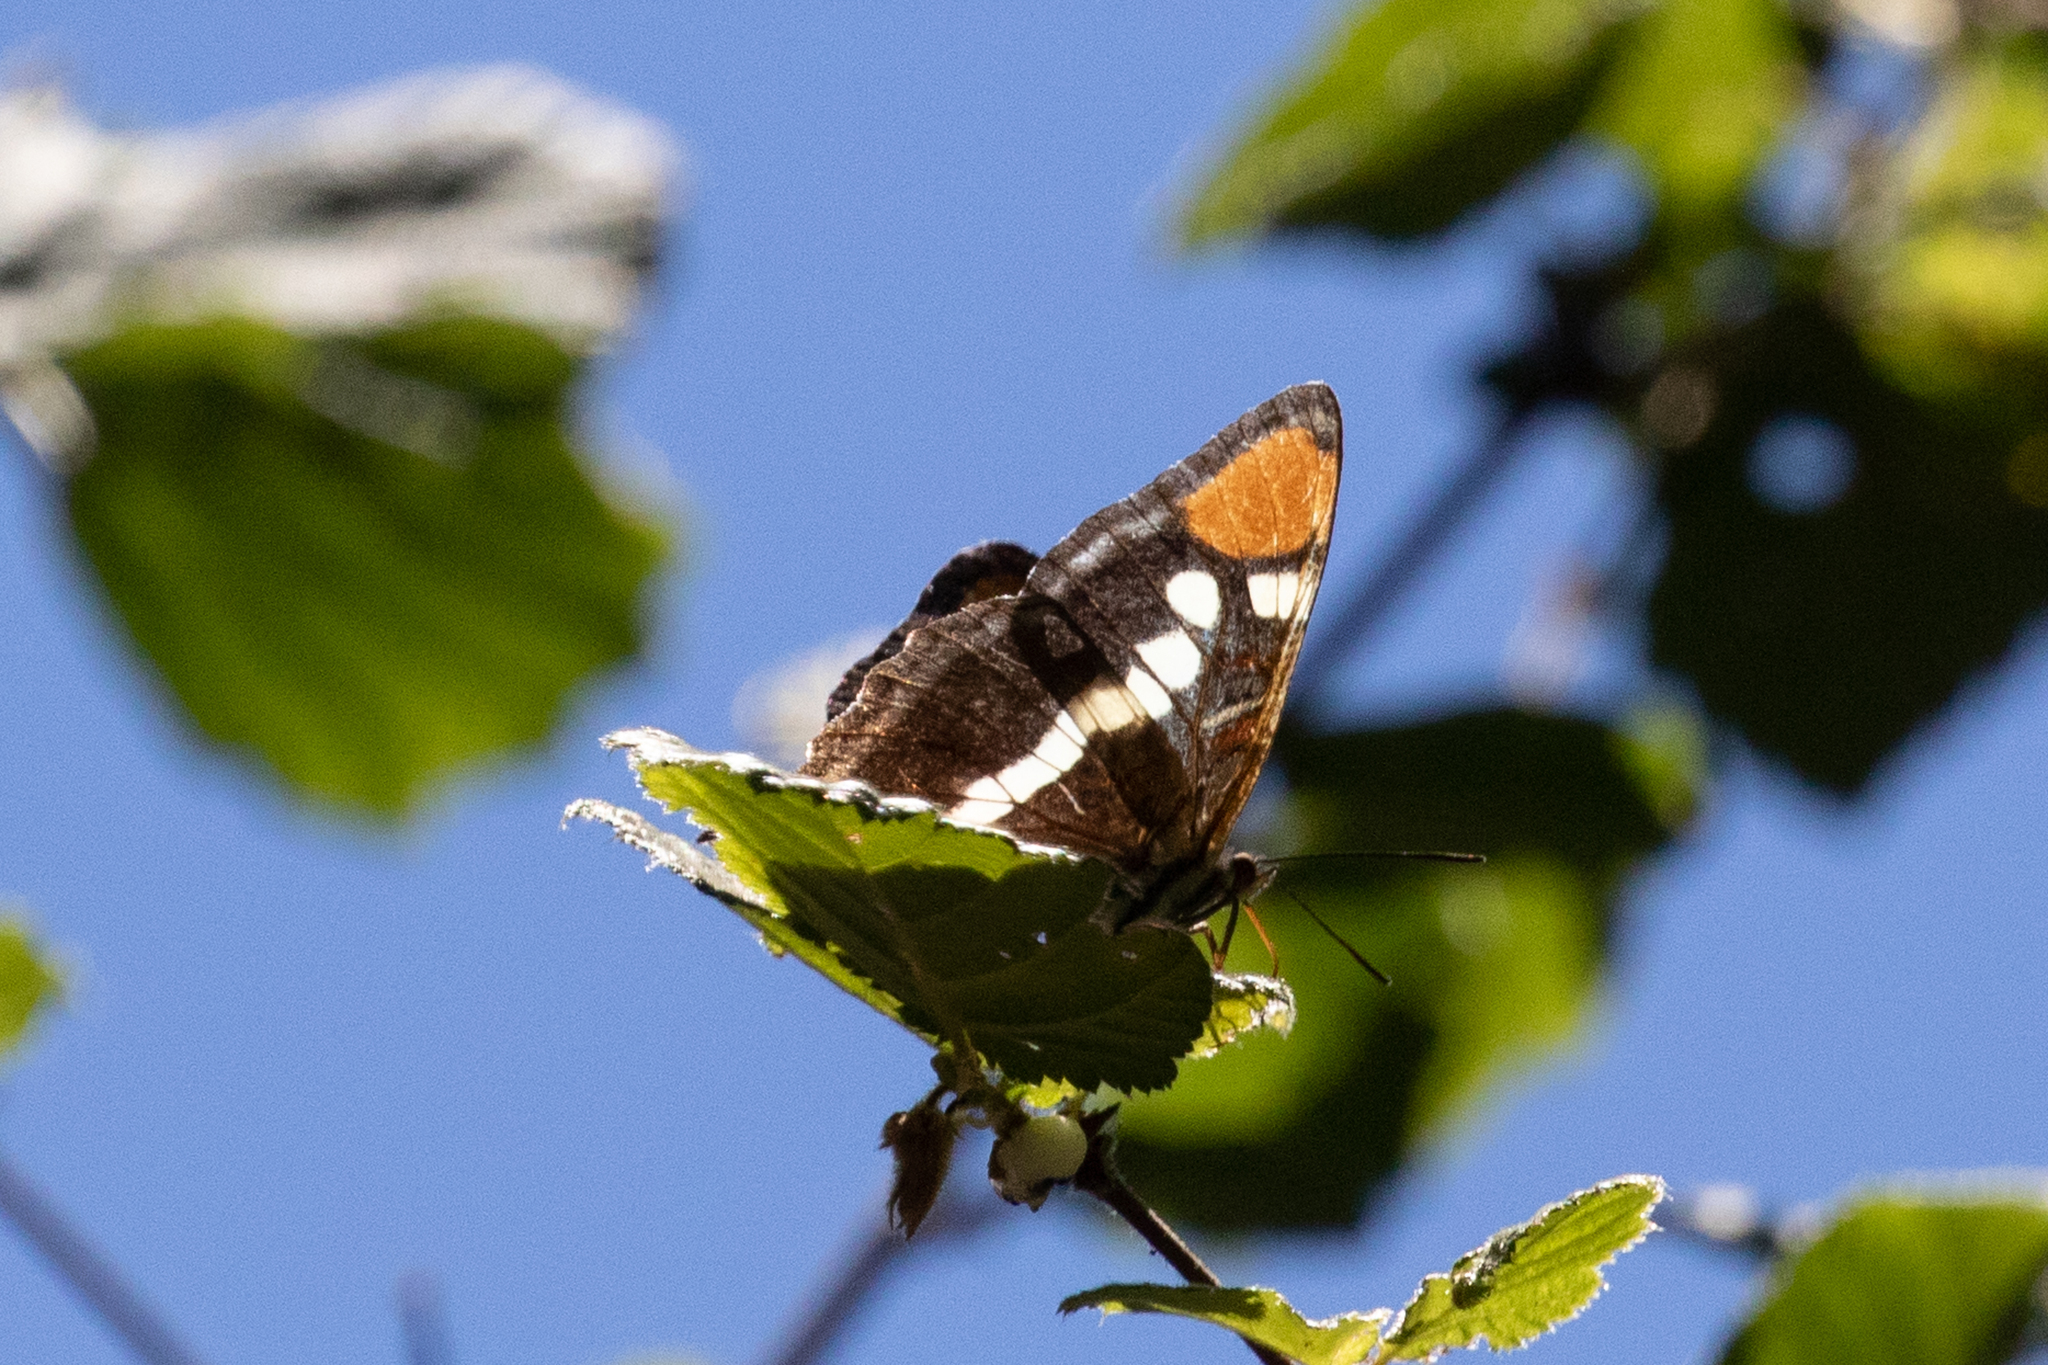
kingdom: Animalia
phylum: Arthropoda
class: Insecta
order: Lepidoptera
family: Nymphalidae
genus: Limenitis
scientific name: Limenitis bredowii
